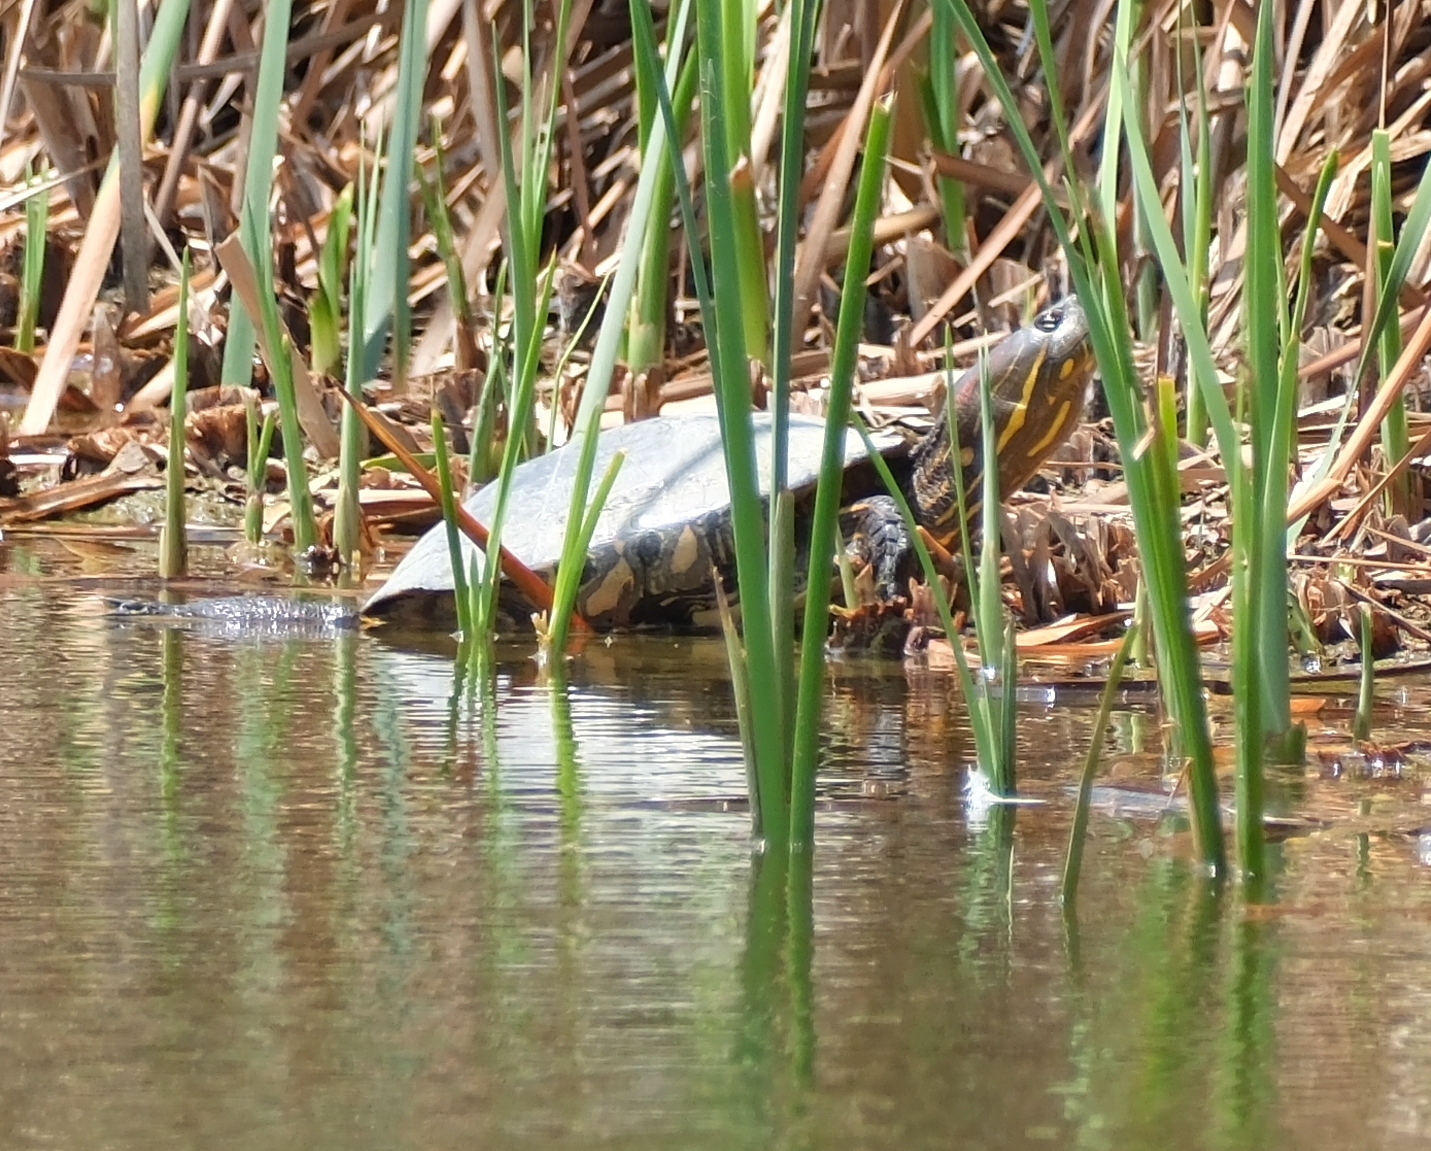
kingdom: Animalia
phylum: Chordata
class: Testudines
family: Emydidae
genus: Trachemys
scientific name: Trachemys callirostris
